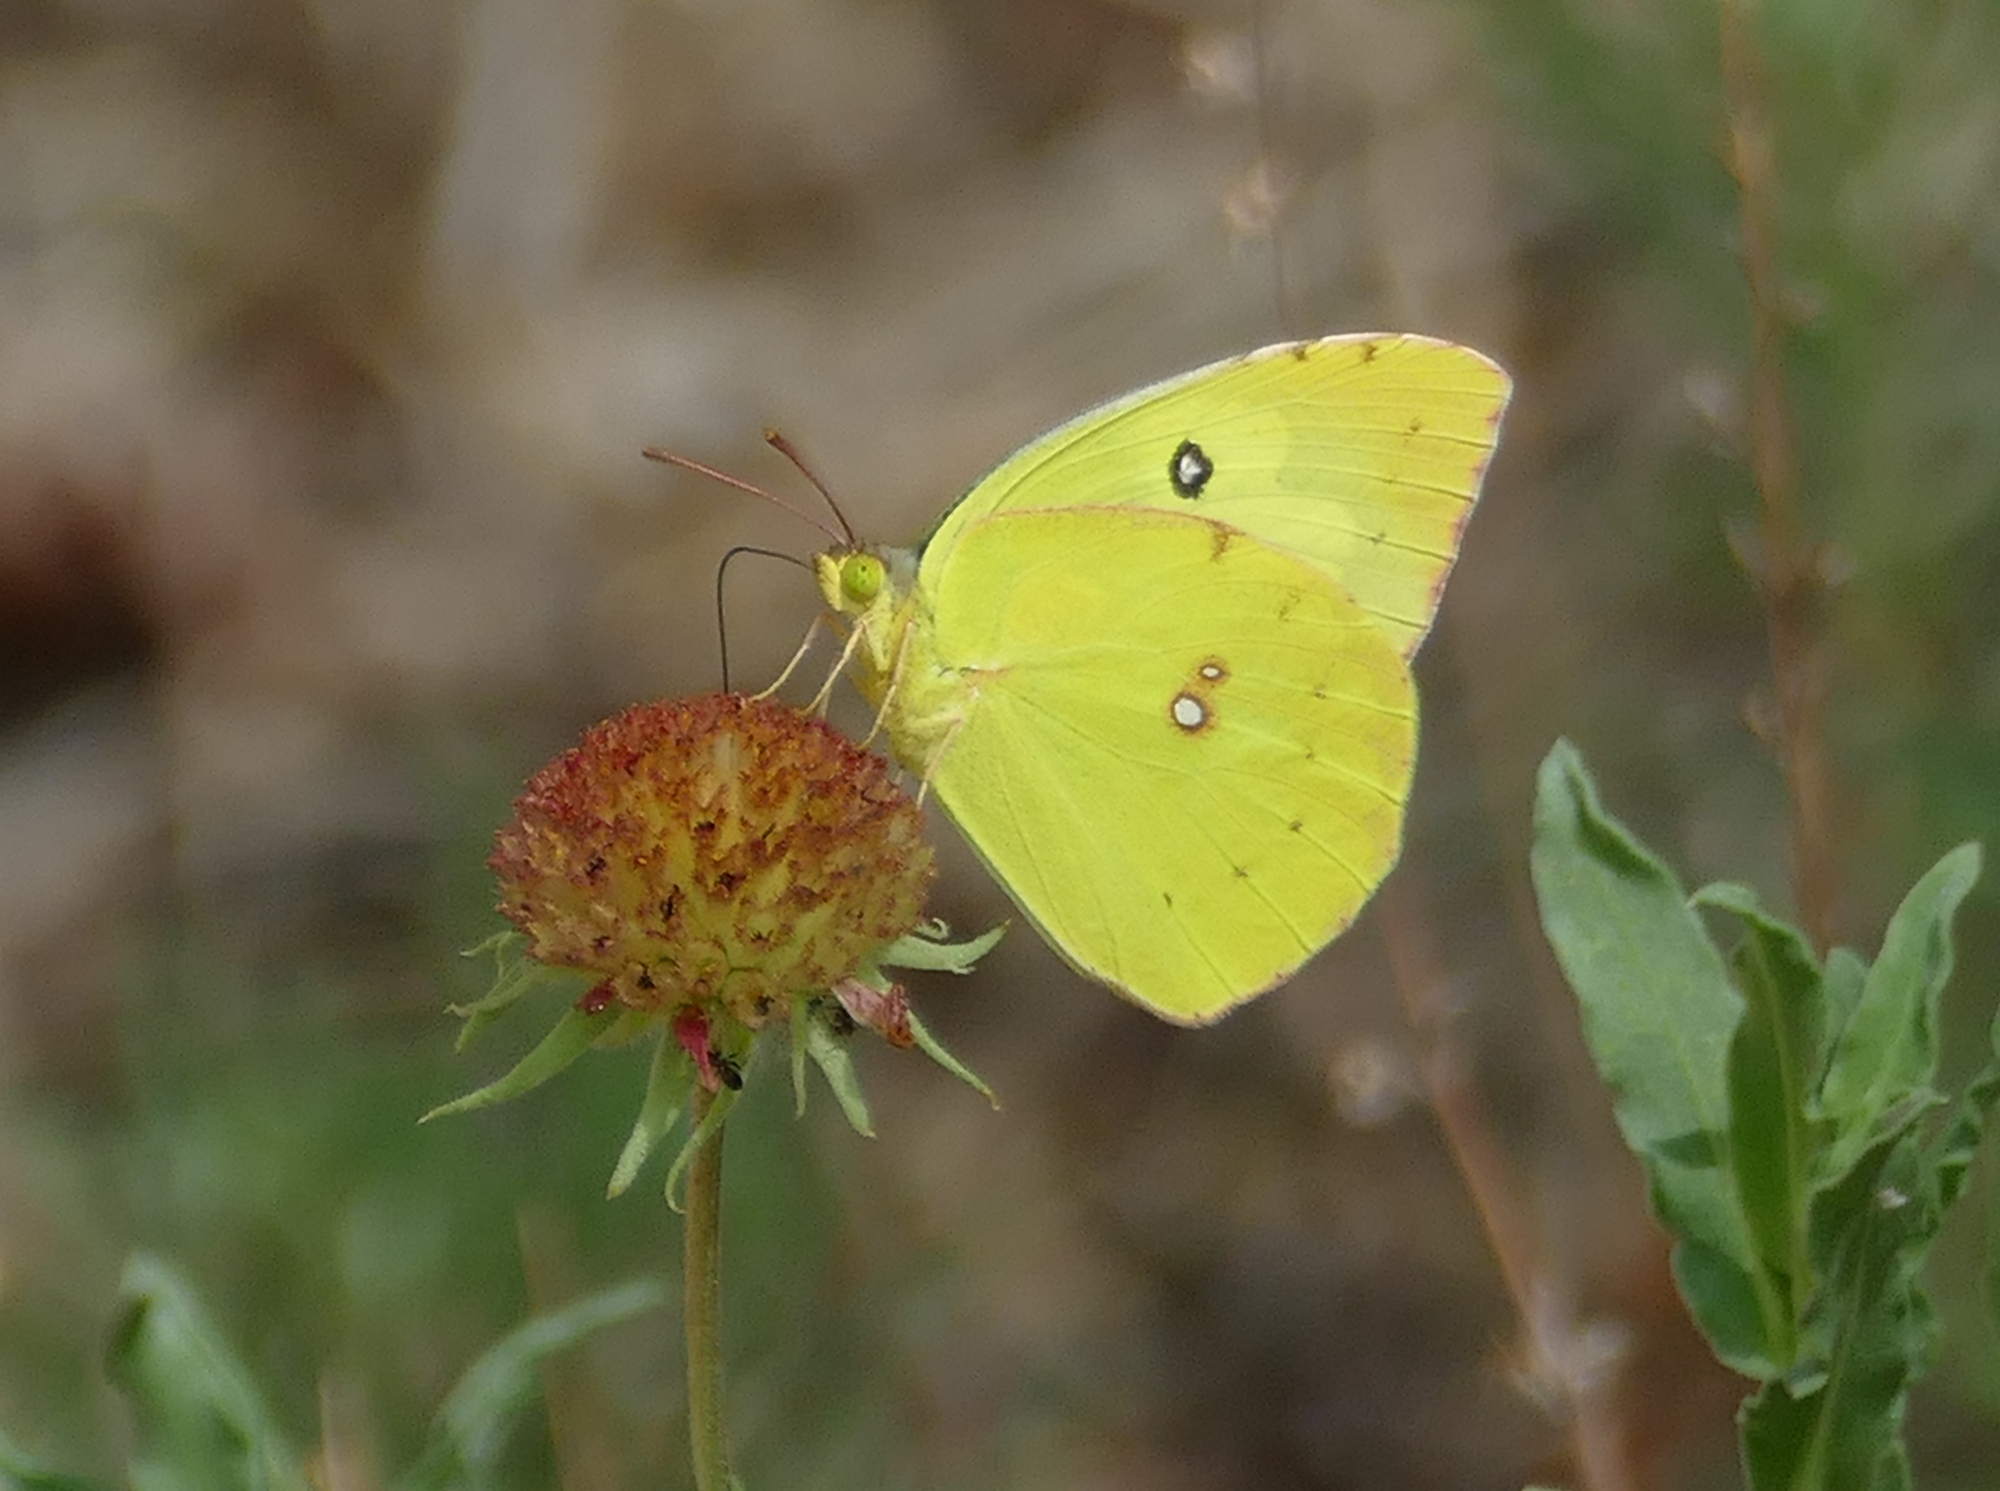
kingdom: Animalia
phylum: Arthropoda
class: Insecta
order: Lepidoptera
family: Pieridae
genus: Zerene
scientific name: Zerene cesonia
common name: Southern dogface
